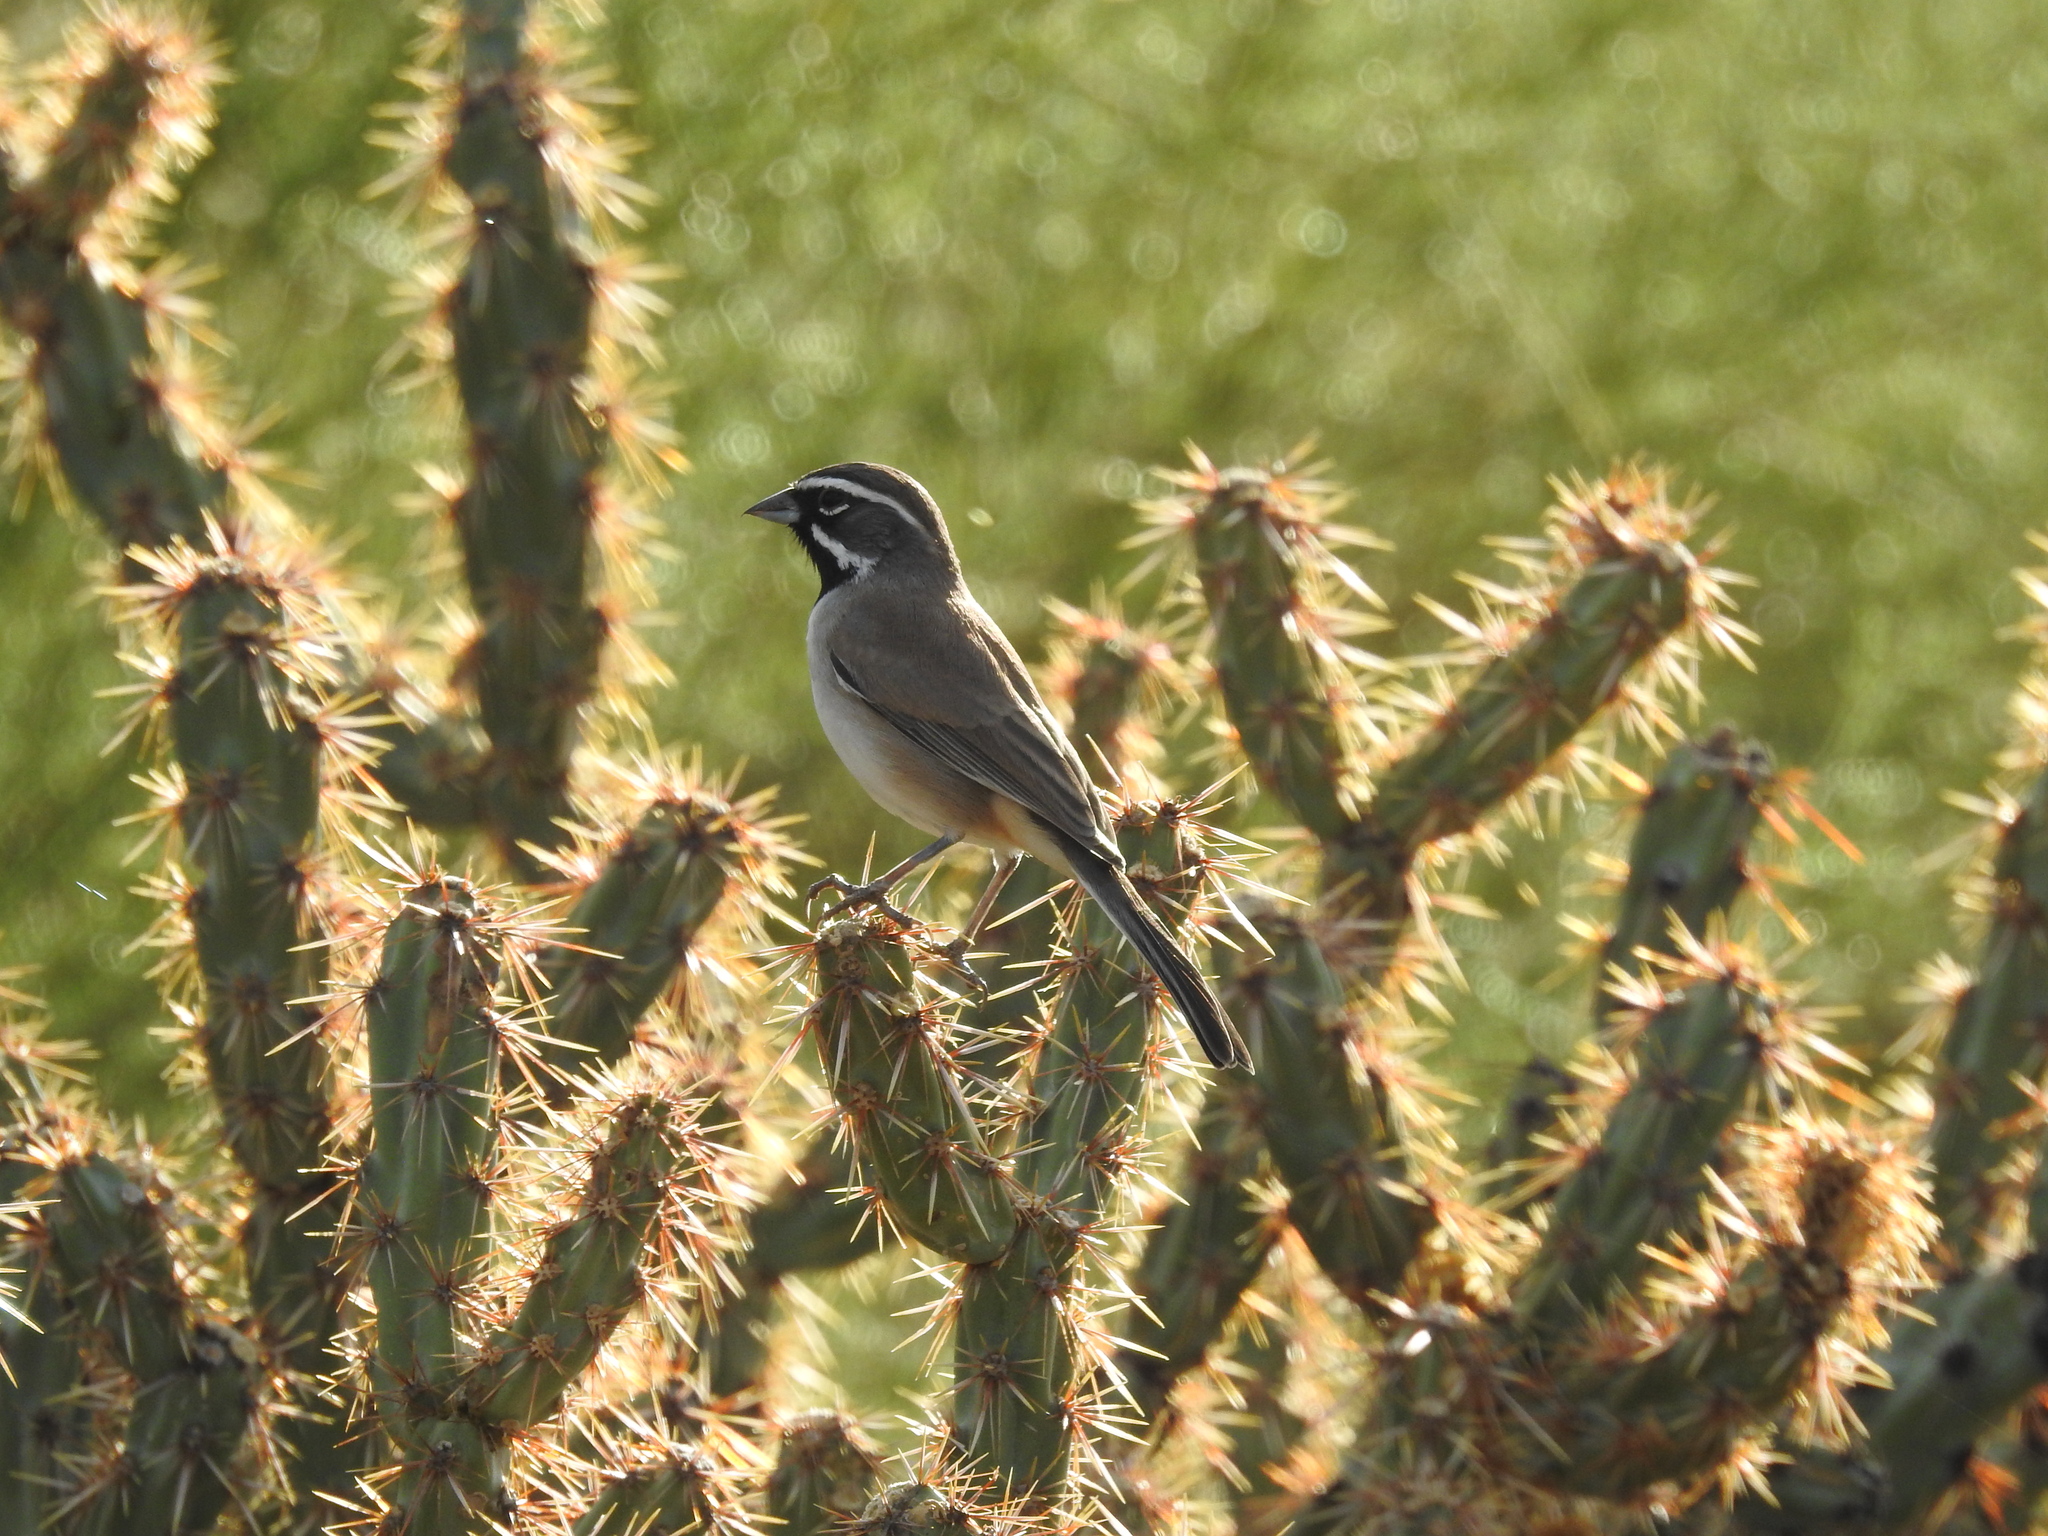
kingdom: Animalia
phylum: Chordata
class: Aves
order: Passeriformes
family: Passerellidae
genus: Amphispiza
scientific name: Amphispiza bilineata
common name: Black-throated sparrow
